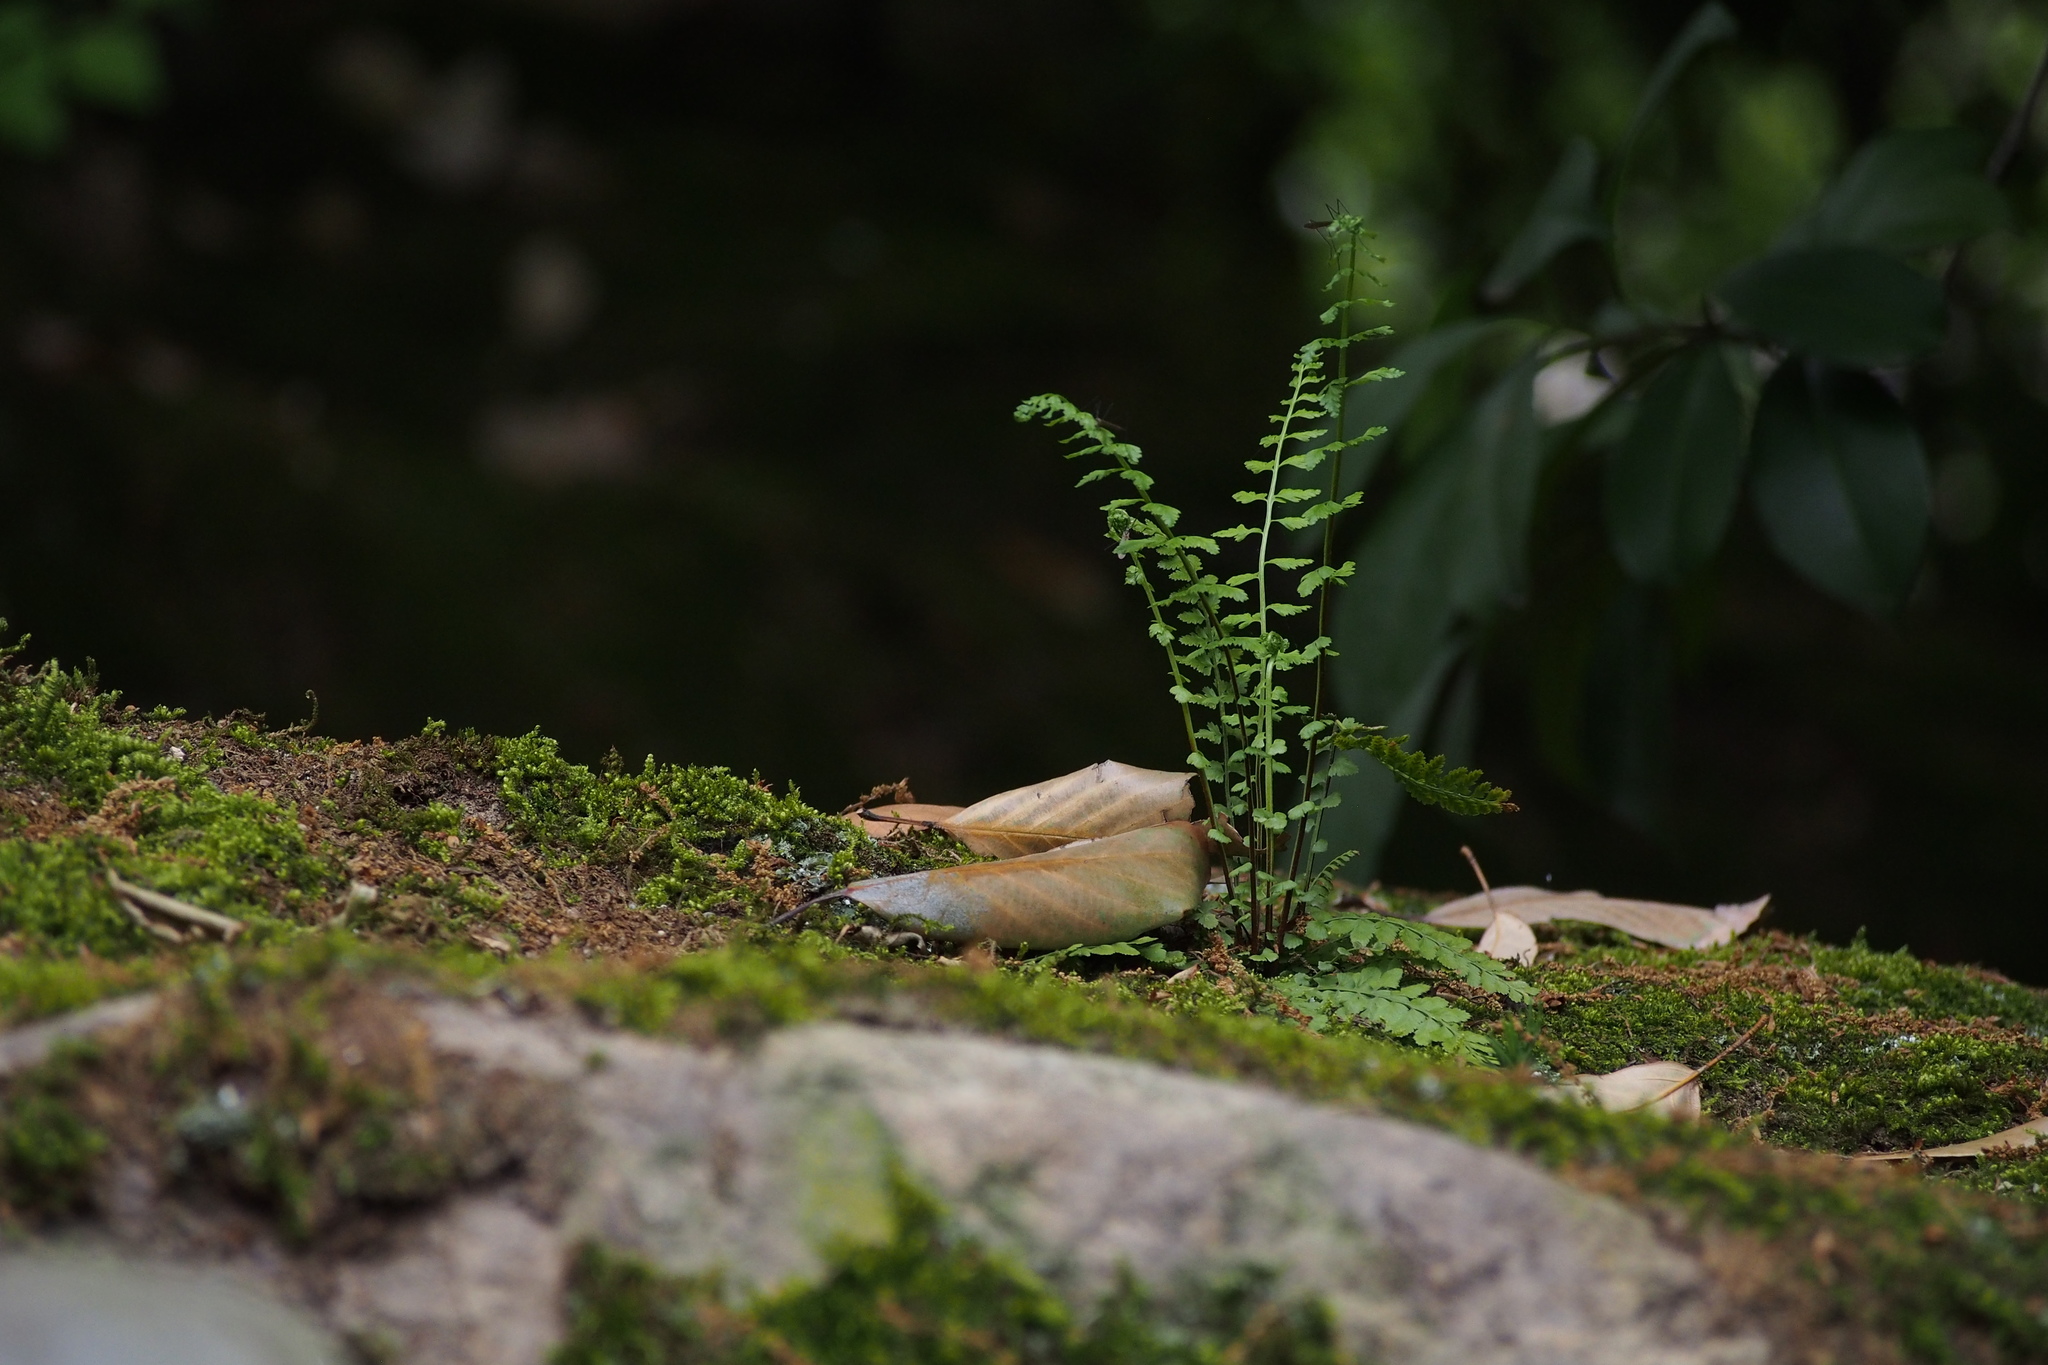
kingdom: Plantae
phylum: Tracheophyta
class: Polypodiopsida
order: Polypodiales
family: Aspleniaceae
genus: Asplenium
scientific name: Asplenium incisum
